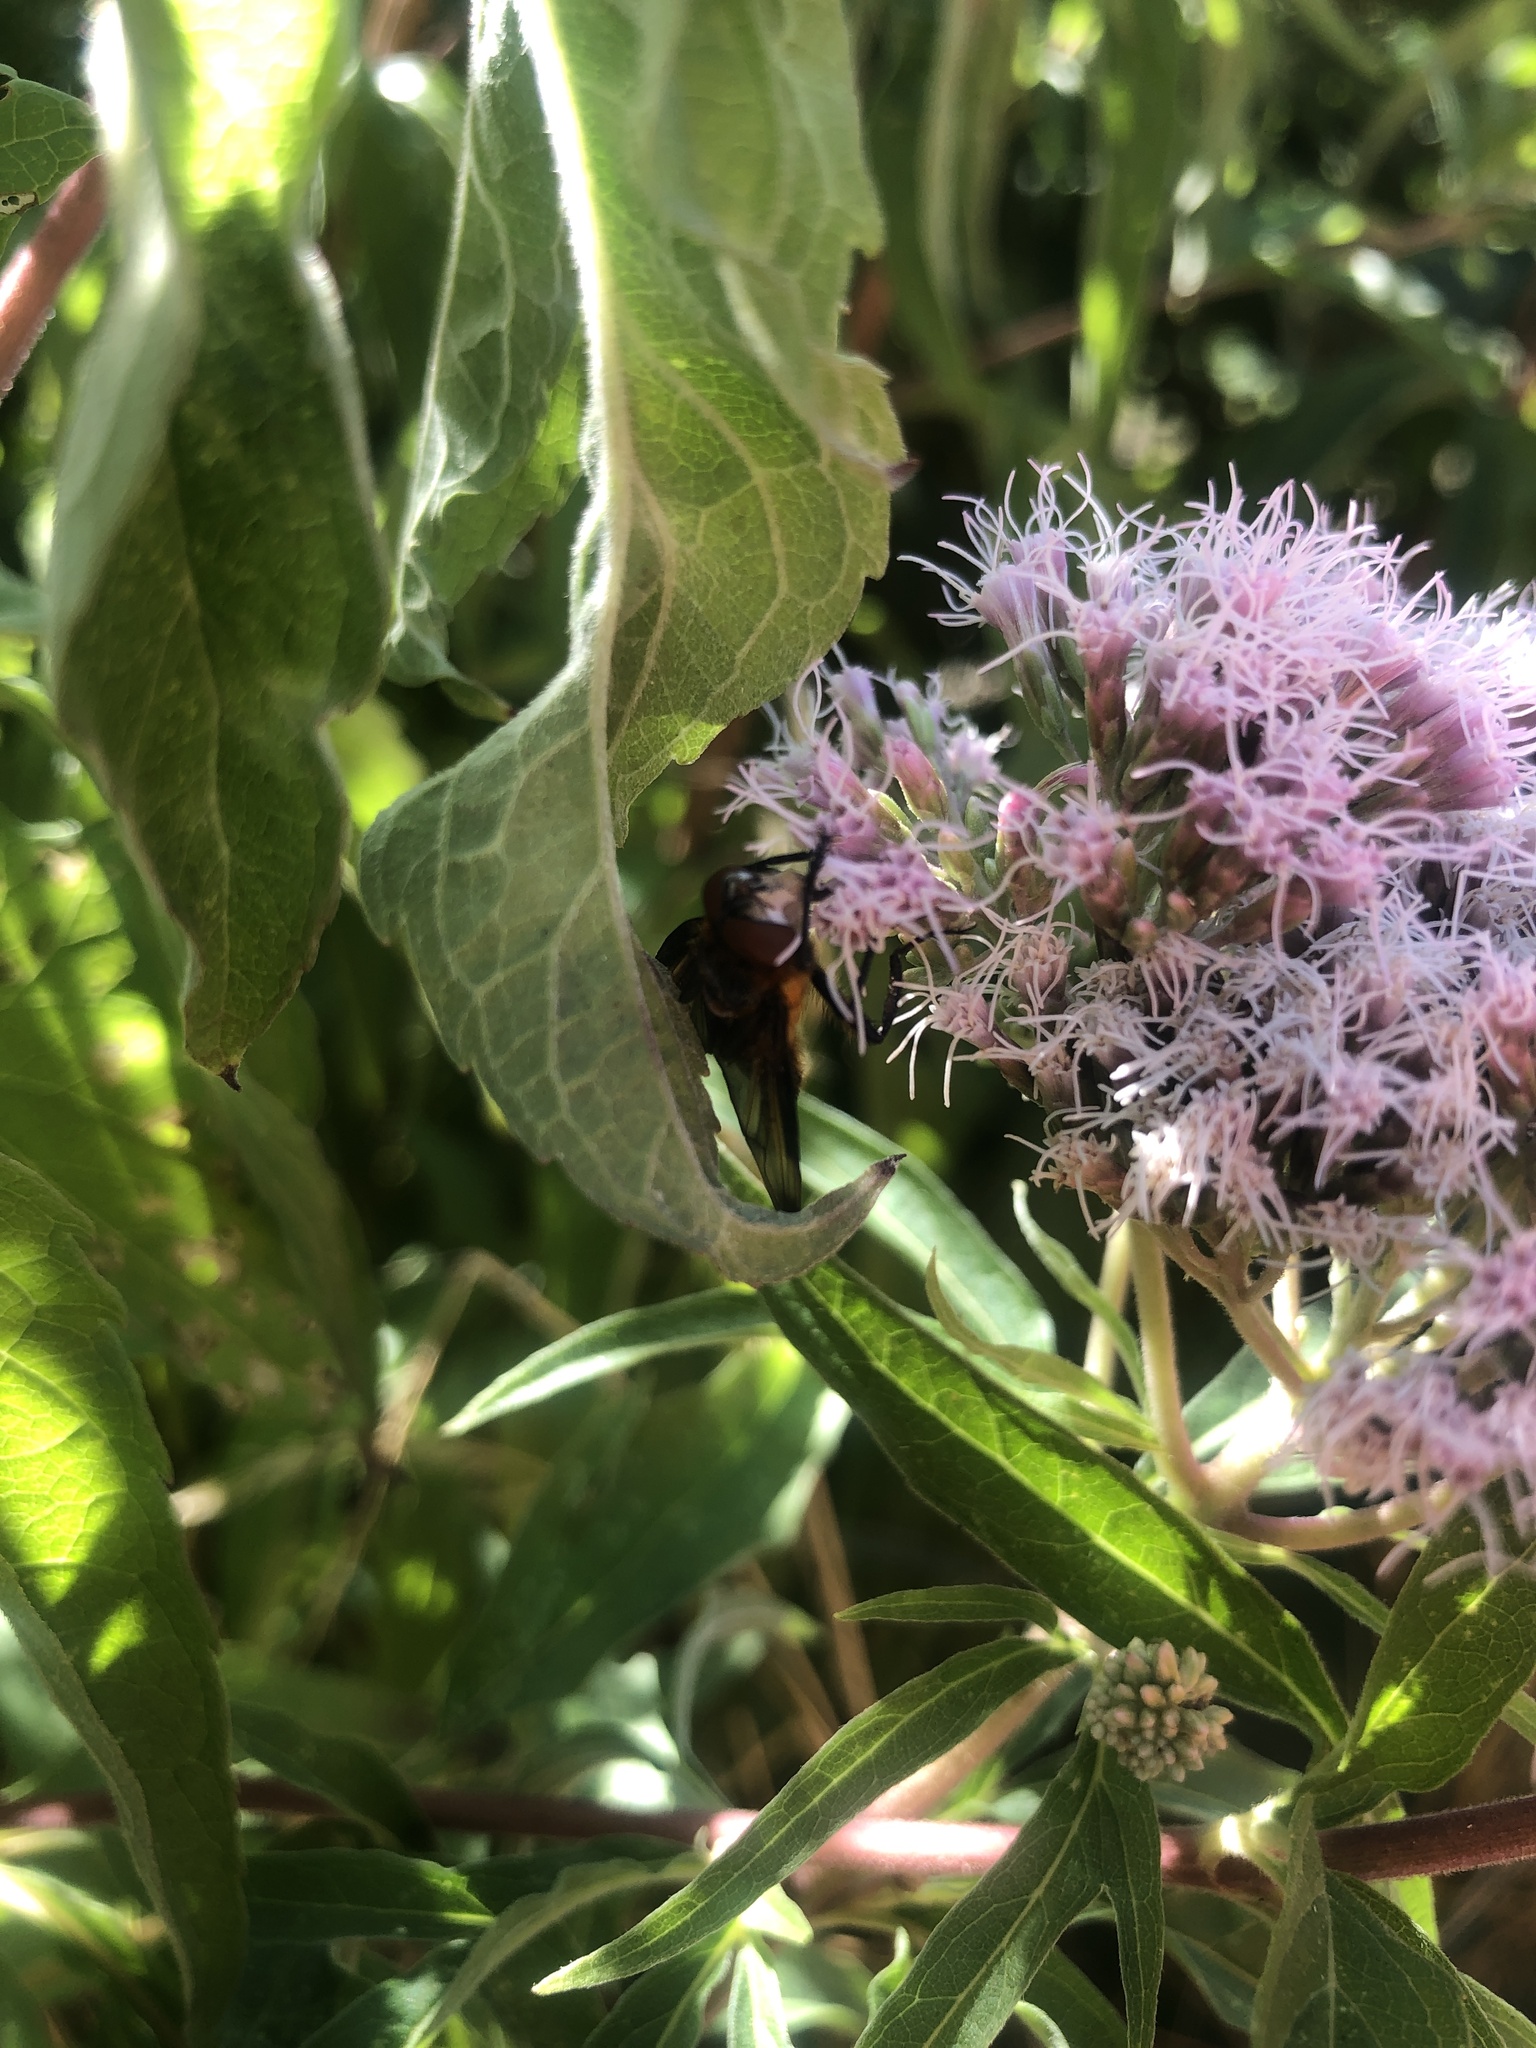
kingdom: Animalia
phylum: Arthropoda
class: Insecta
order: Diptera
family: Tachinidae
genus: Phasia
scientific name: Phasia hemiptera
